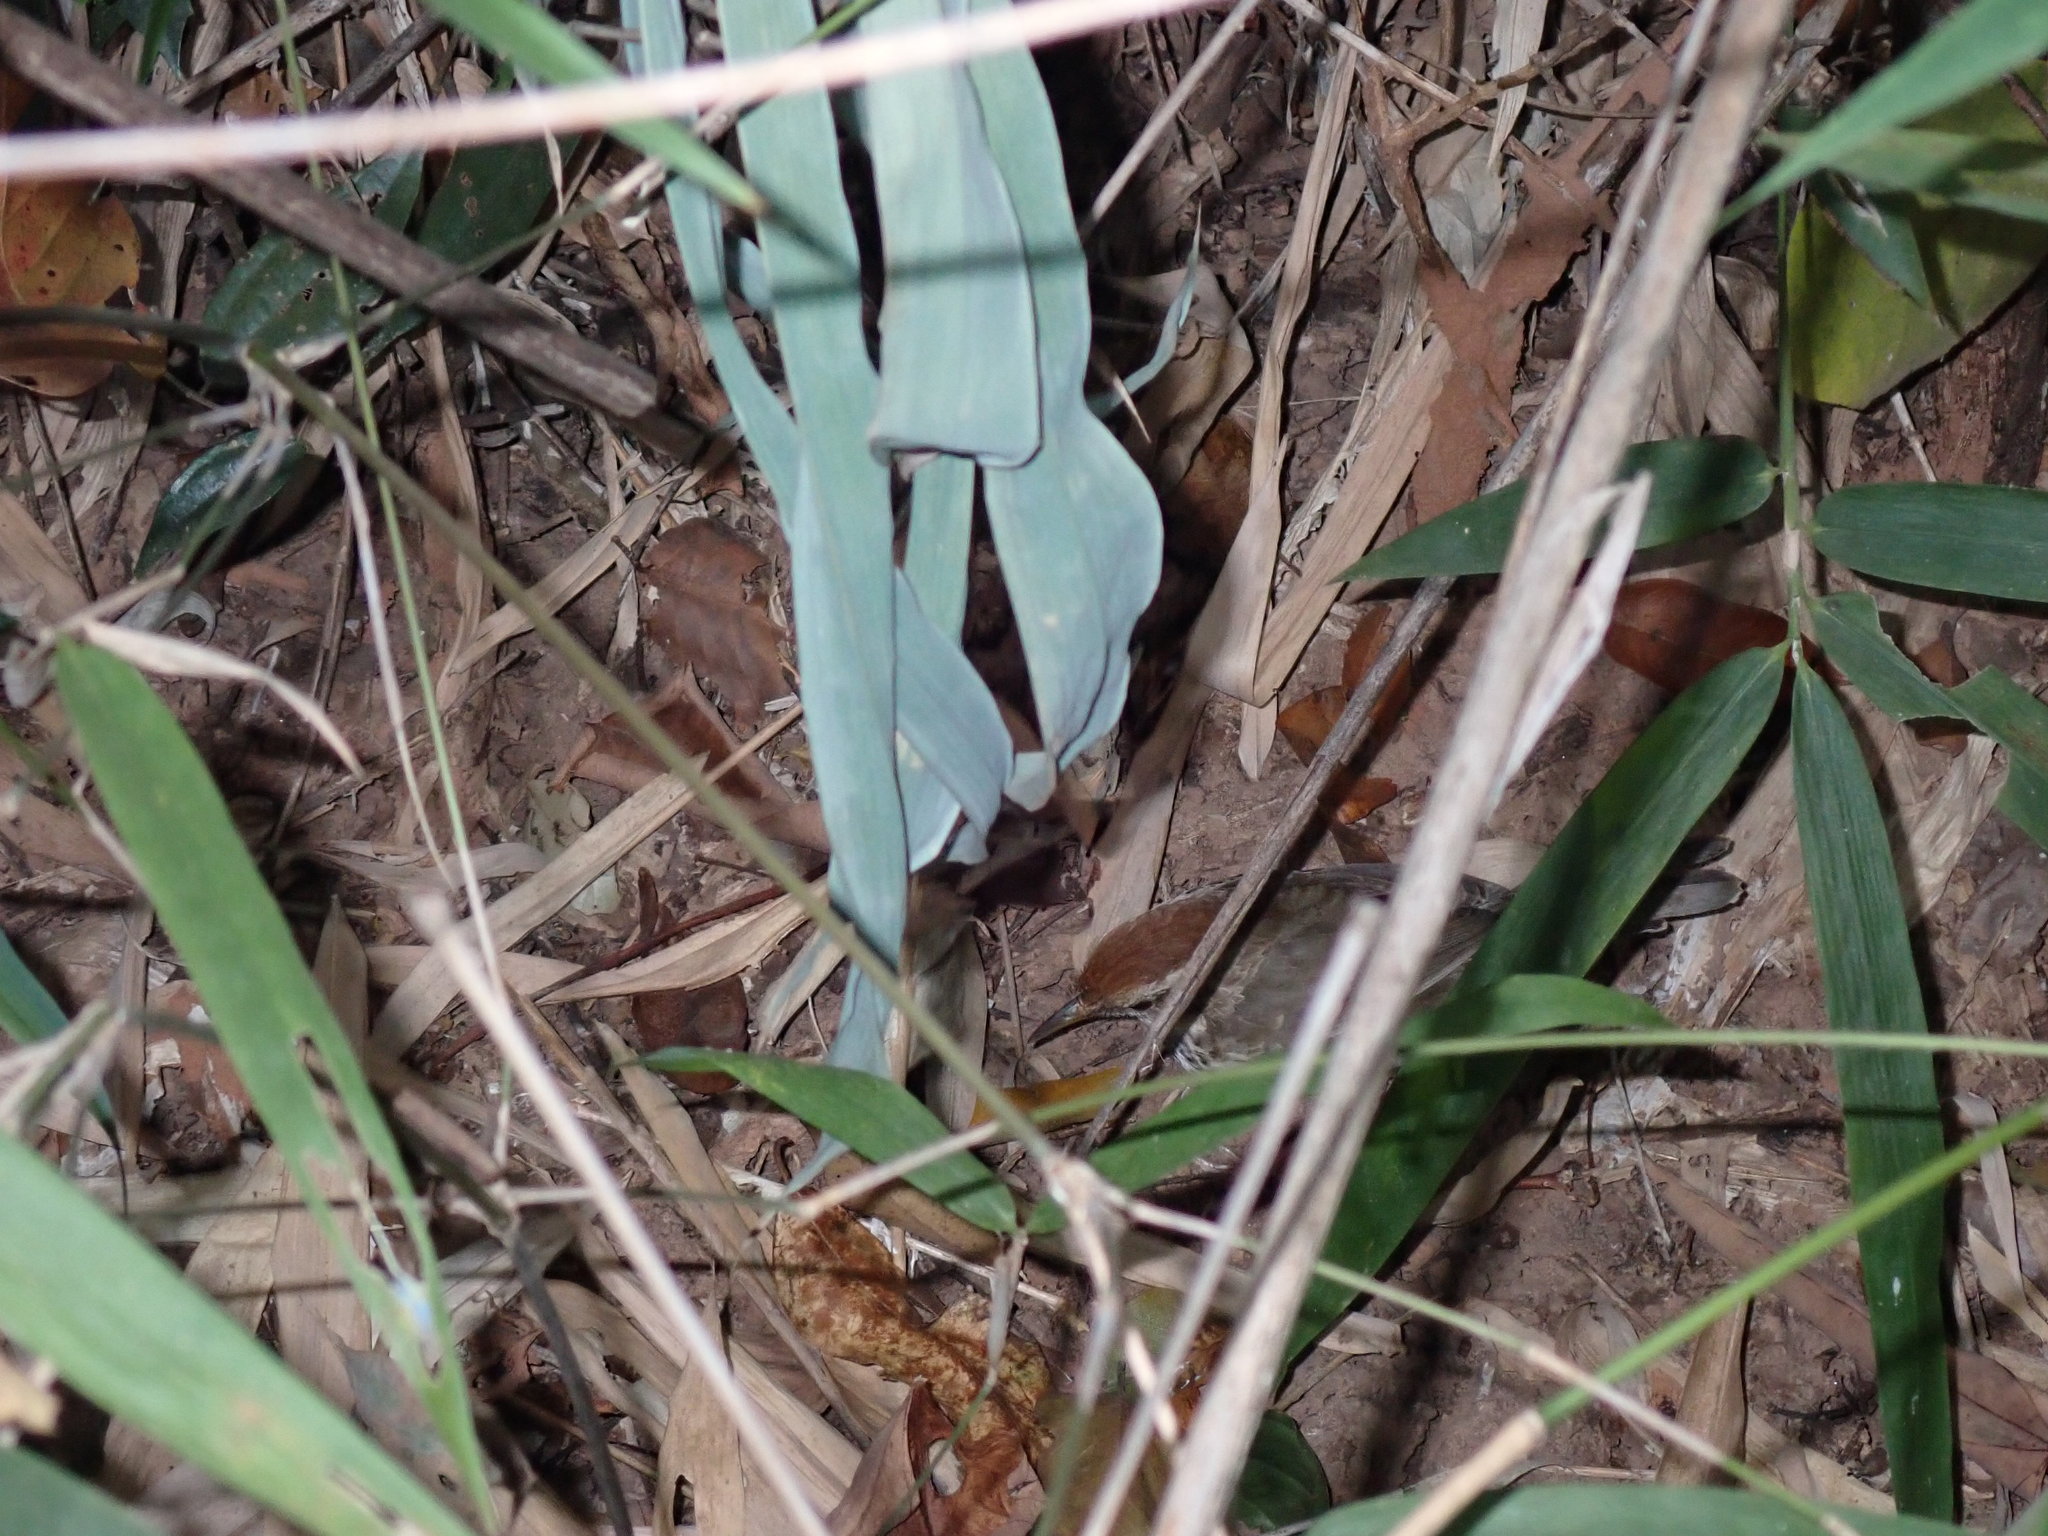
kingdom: Animalia
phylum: Chordata
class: Aves
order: Passeriformes
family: Pellorneidae
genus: Pellorneum
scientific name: Pellorneum ruficeps
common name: Puff-throated babbler
